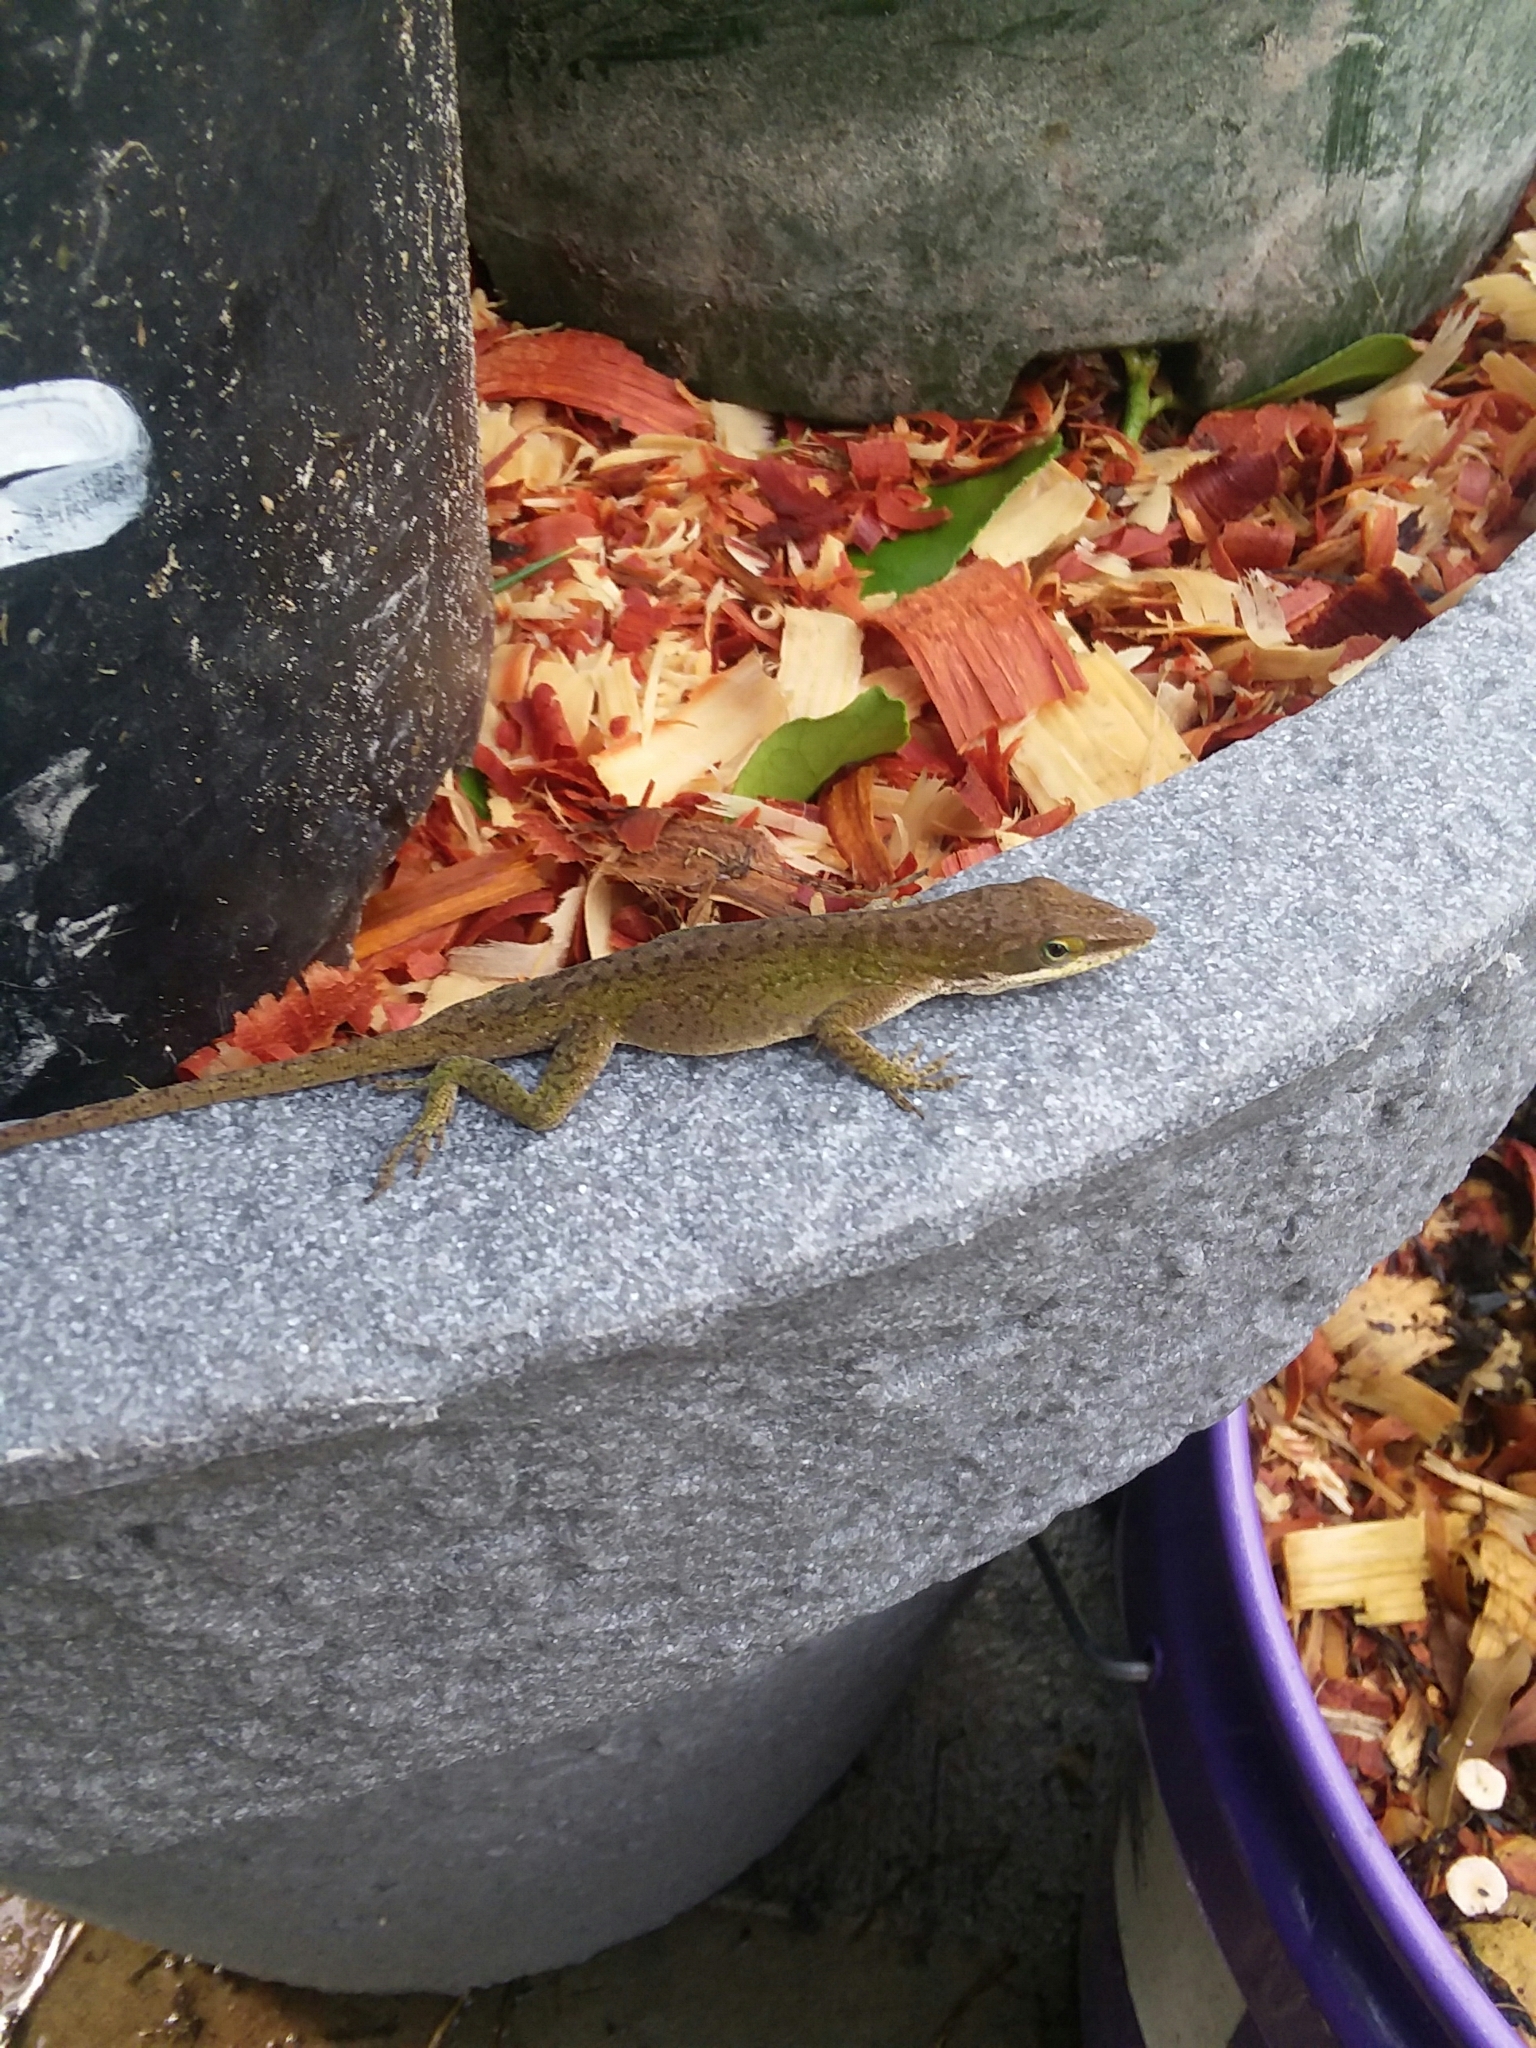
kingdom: Animalia
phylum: Chordata
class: Squamata
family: Dactyloidae
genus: Anolis
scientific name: Anolis carolinensis
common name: Green anole
